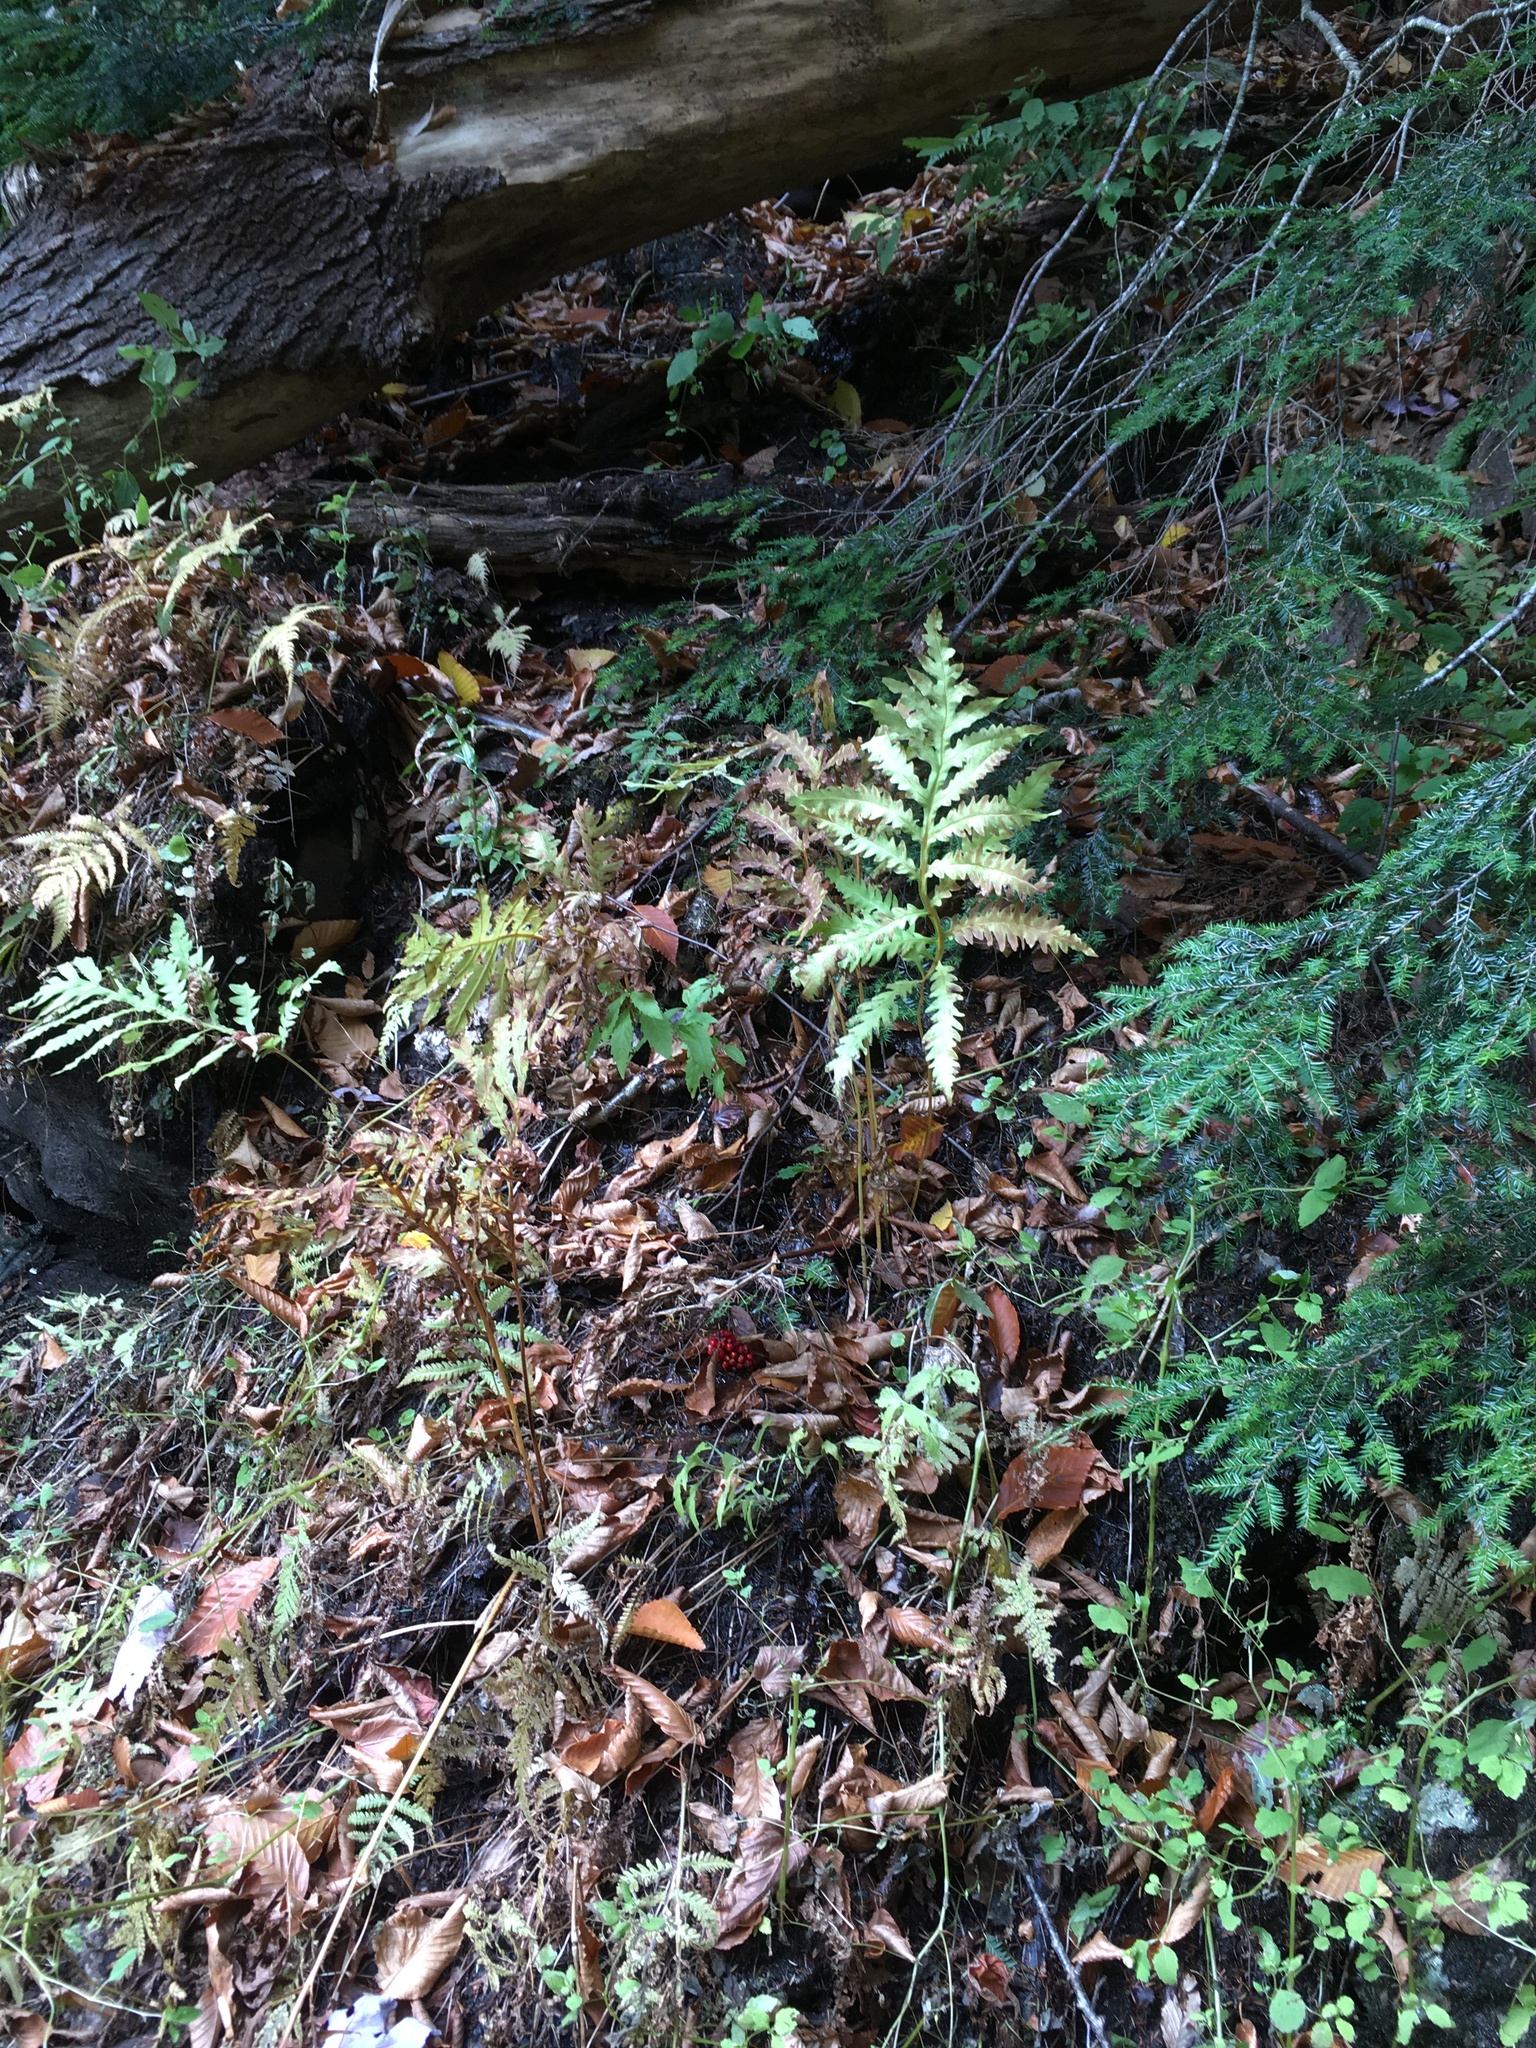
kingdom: Plantae
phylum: Tracheophyta
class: Polypodiopsida
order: Polypodiales
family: Onocleaceae
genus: Onoclea
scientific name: Onoclea sensibilis
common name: Sensitive fern
